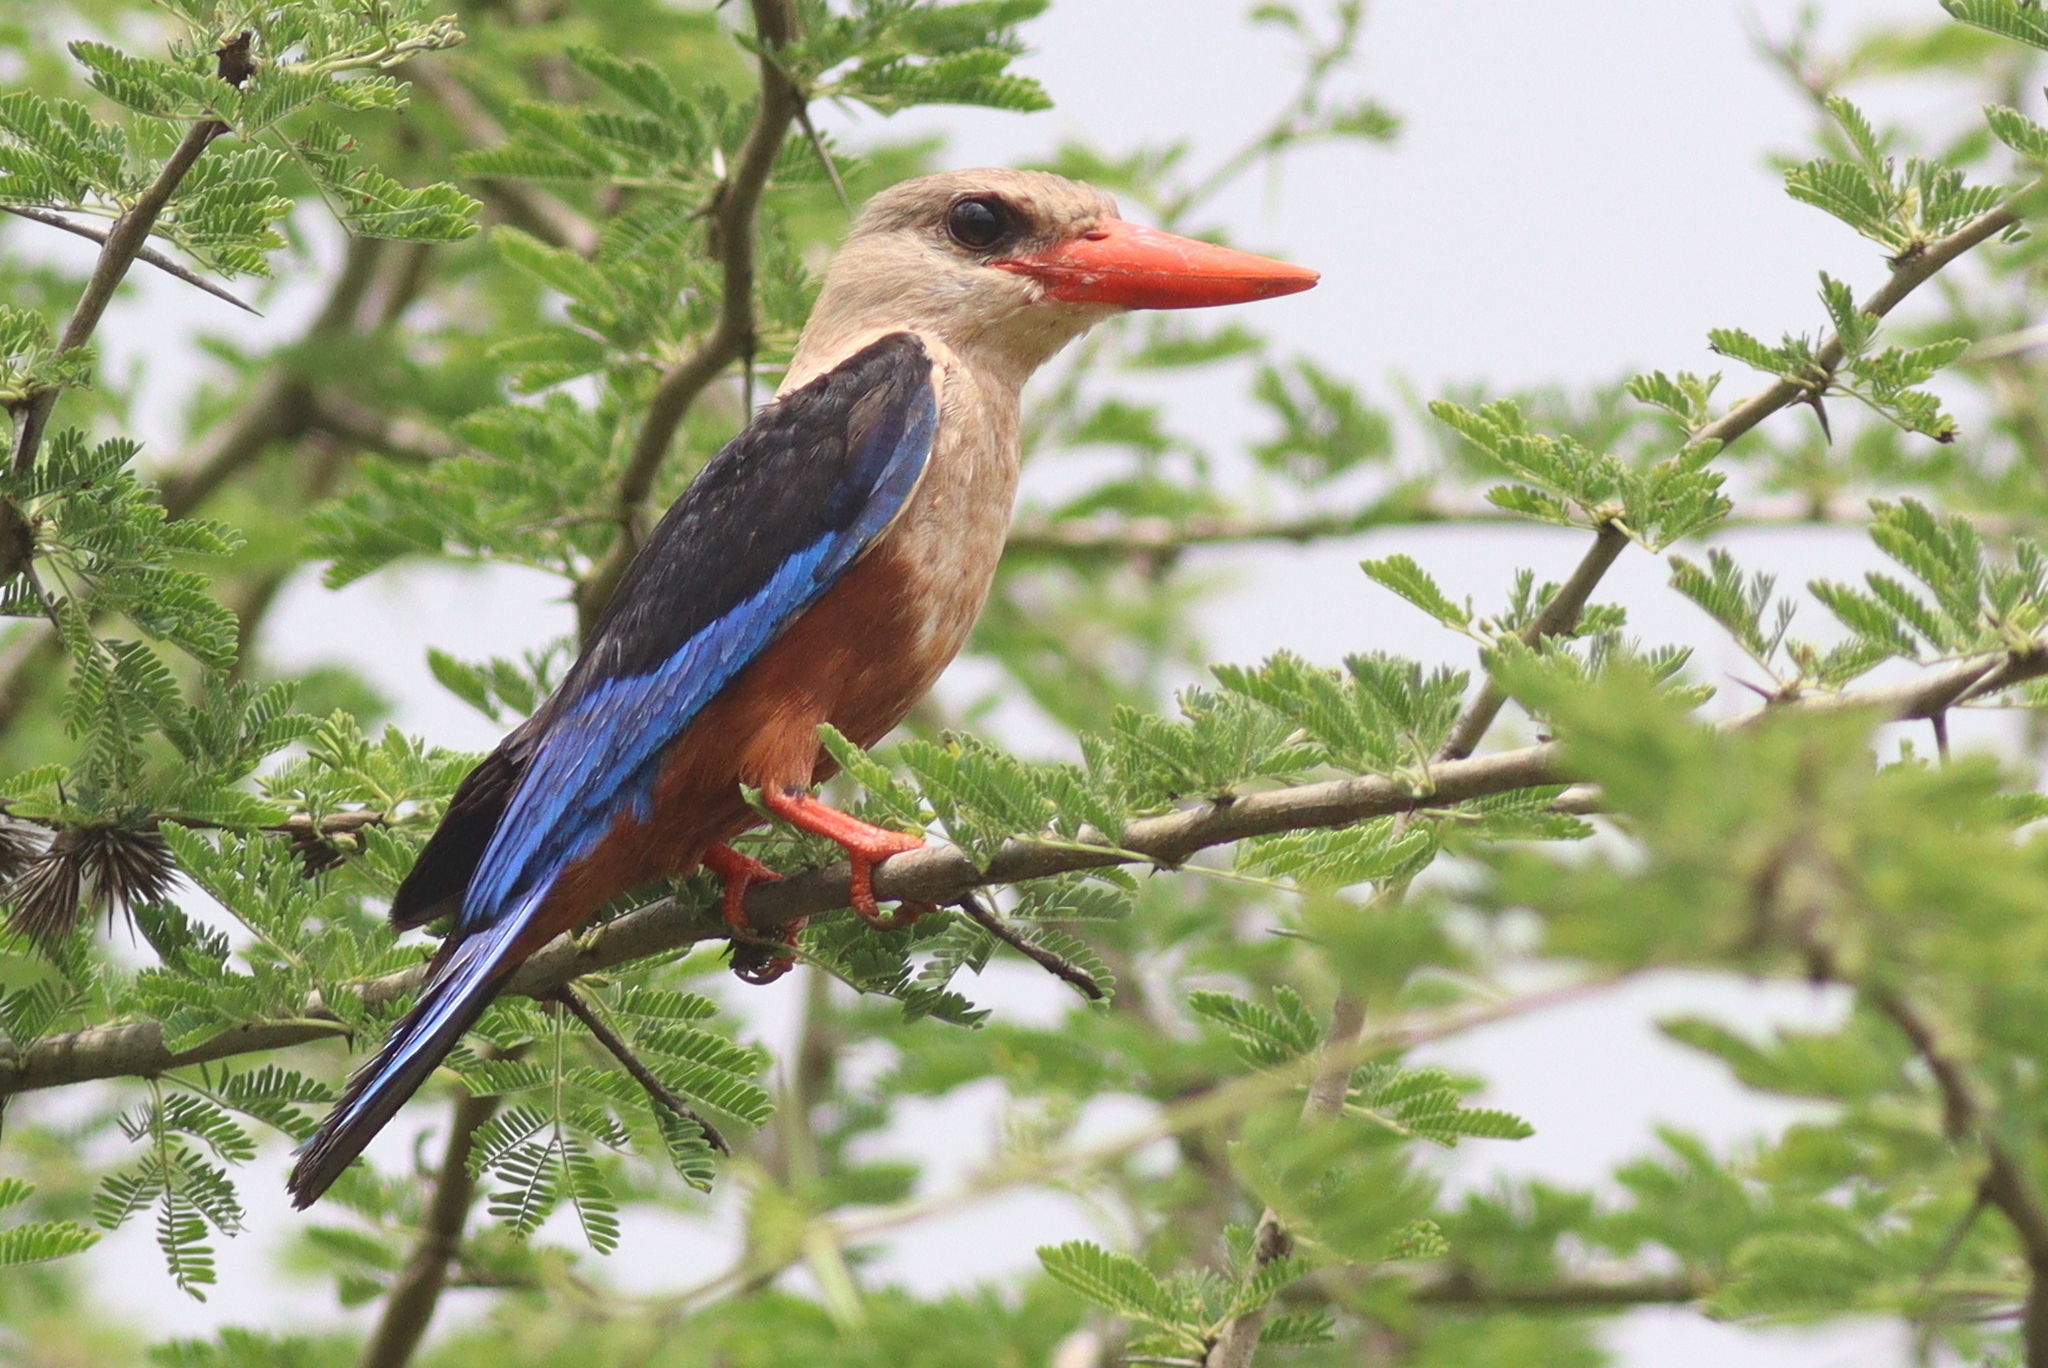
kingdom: Animalia
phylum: Chordata
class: Aves
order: Coraciiformes
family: Alcedinidae
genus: Halcyon
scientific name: Halcyon leucocephala
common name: Grey-headed kingfisher
